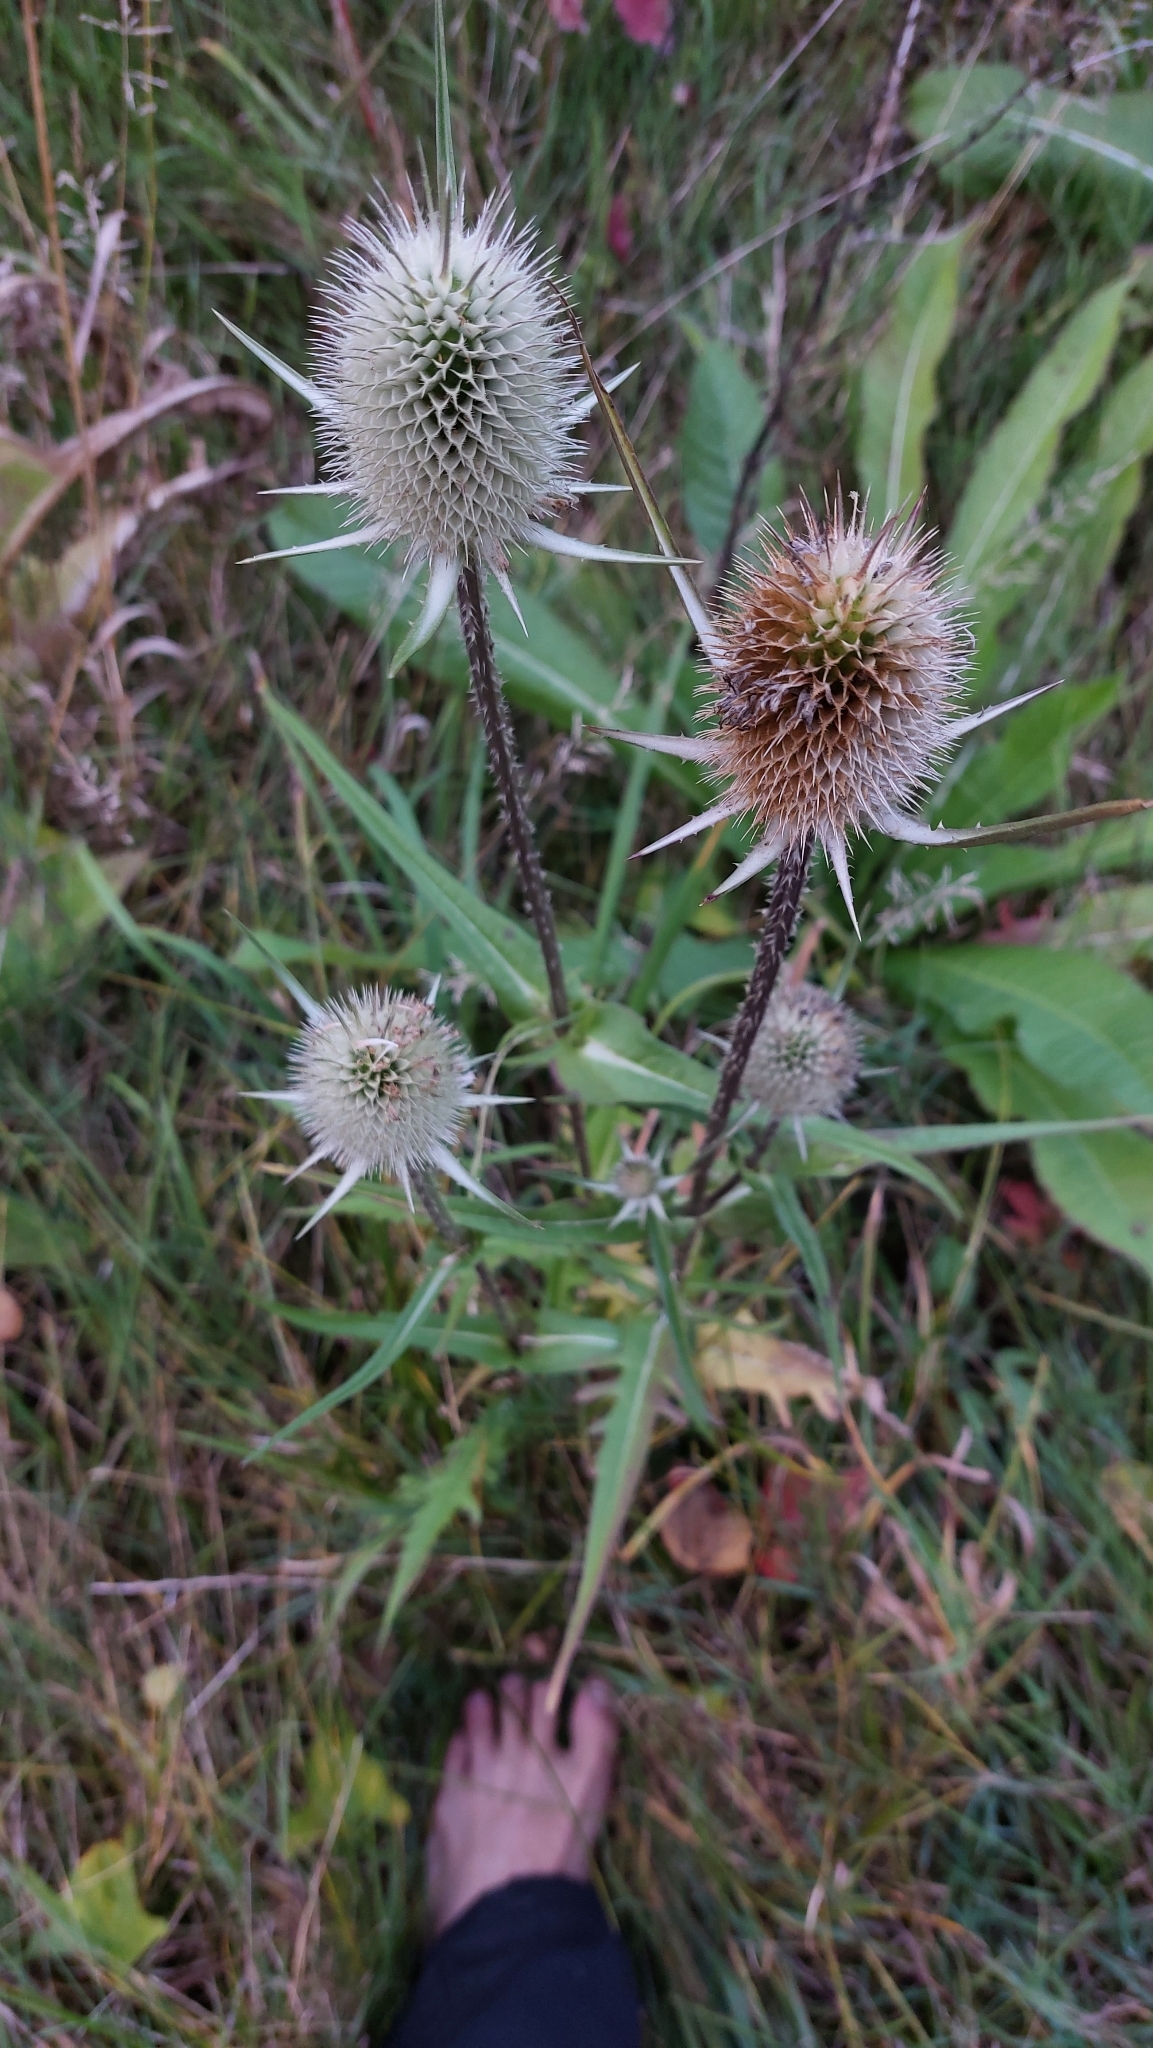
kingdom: Plantae
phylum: Tracheophyta
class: Magnoliopsida
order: Dipsacales
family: Caprifoliaceae
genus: Dipsacus
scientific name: Dipsacus laciniatus
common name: Cut-leaved teasel
